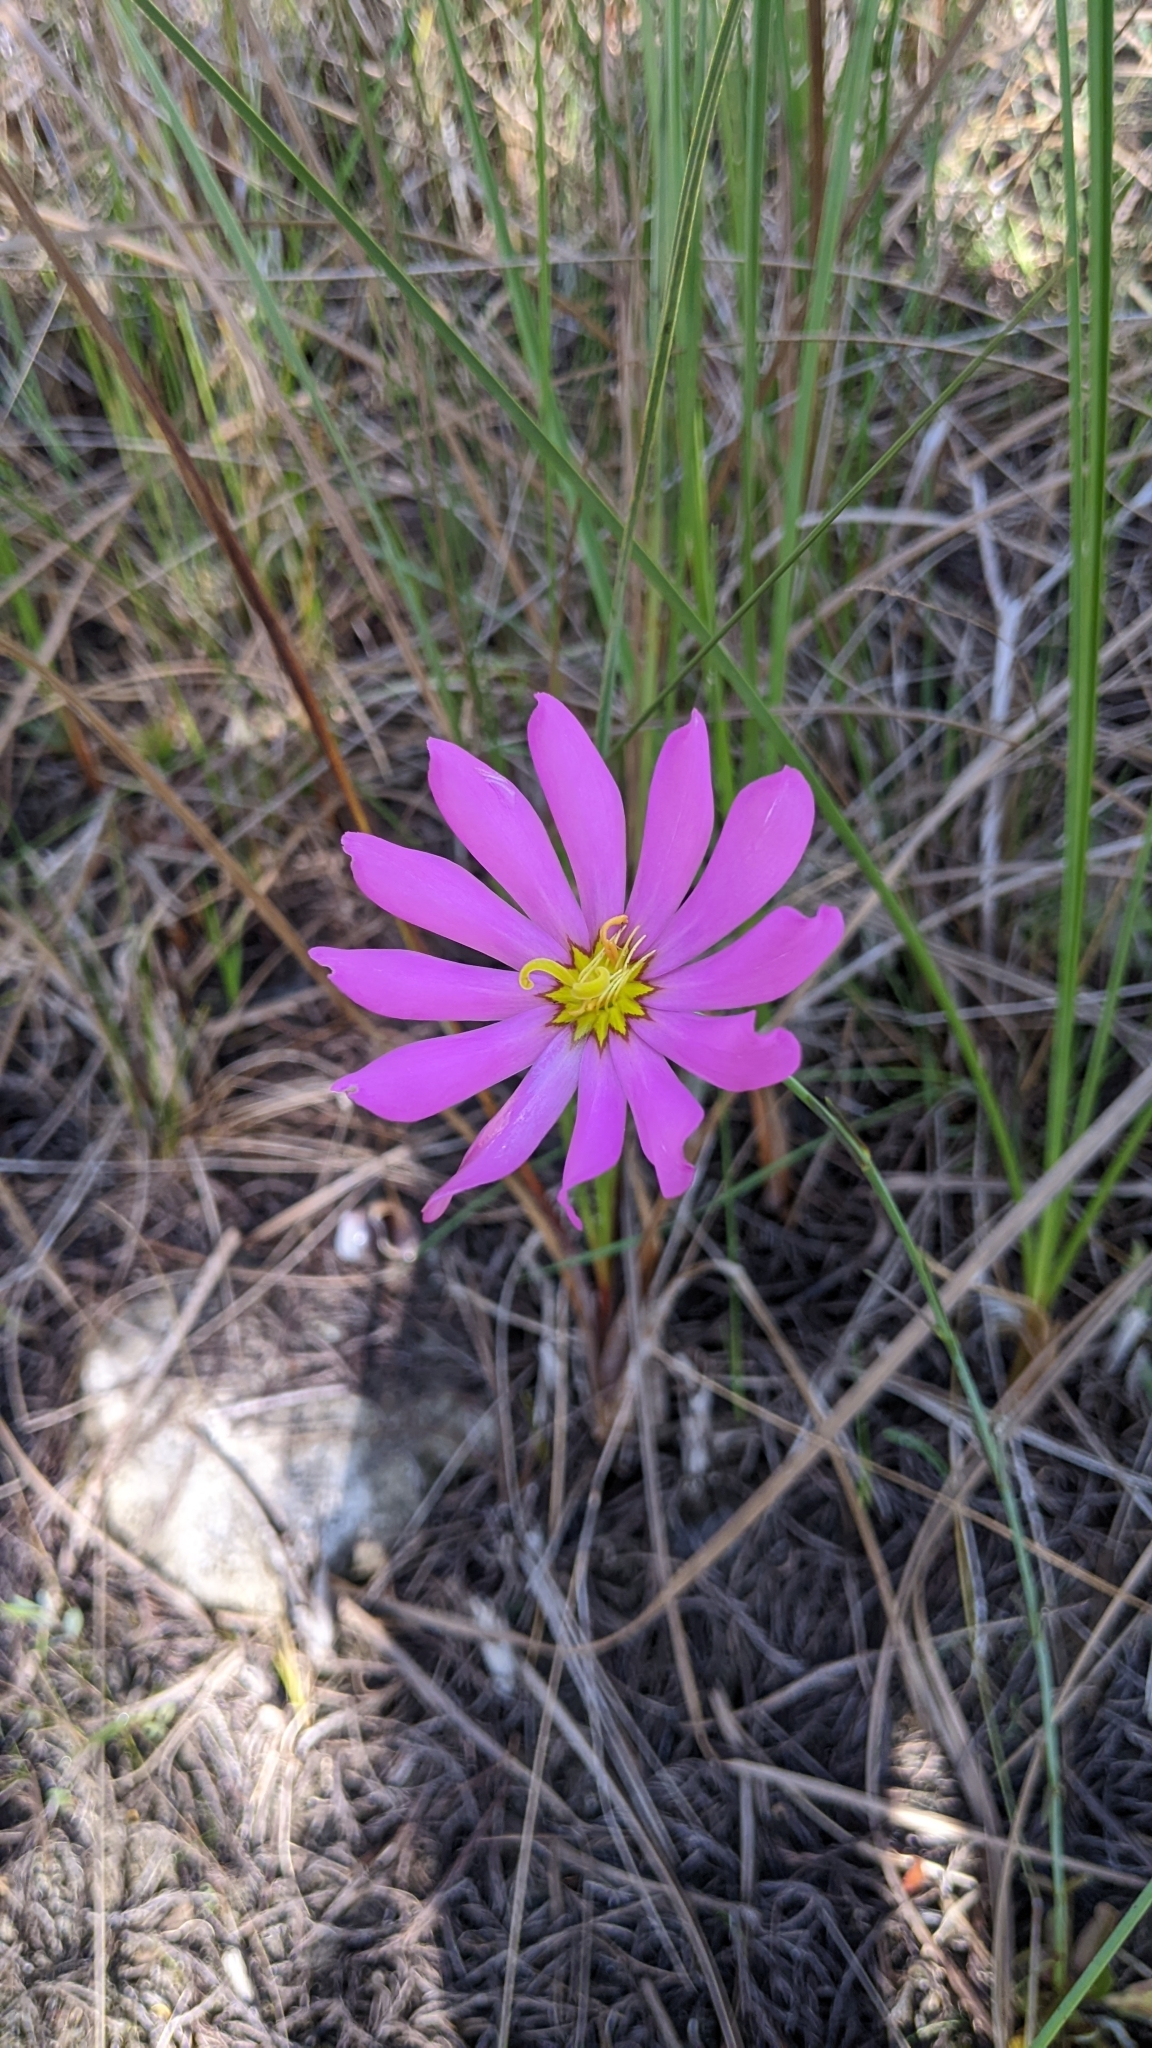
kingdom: Plantae
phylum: Tracheophyta
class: Magnoliopsida
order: Gentianales
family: Gentianaceae
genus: Sabatia
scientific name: Sabatia decandra
